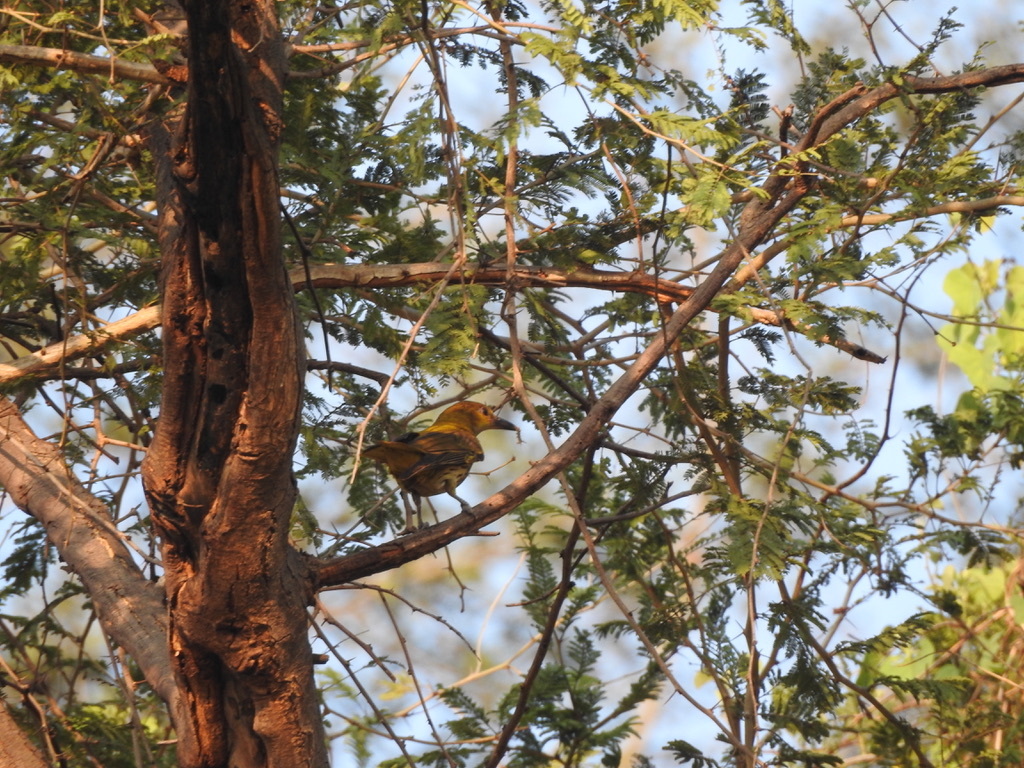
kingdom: Animalia
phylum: Chordata
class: Aves
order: Passeriformes
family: Oriolidae
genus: Oriolus
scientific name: Oriolus kundoo
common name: Indian golden oriole
